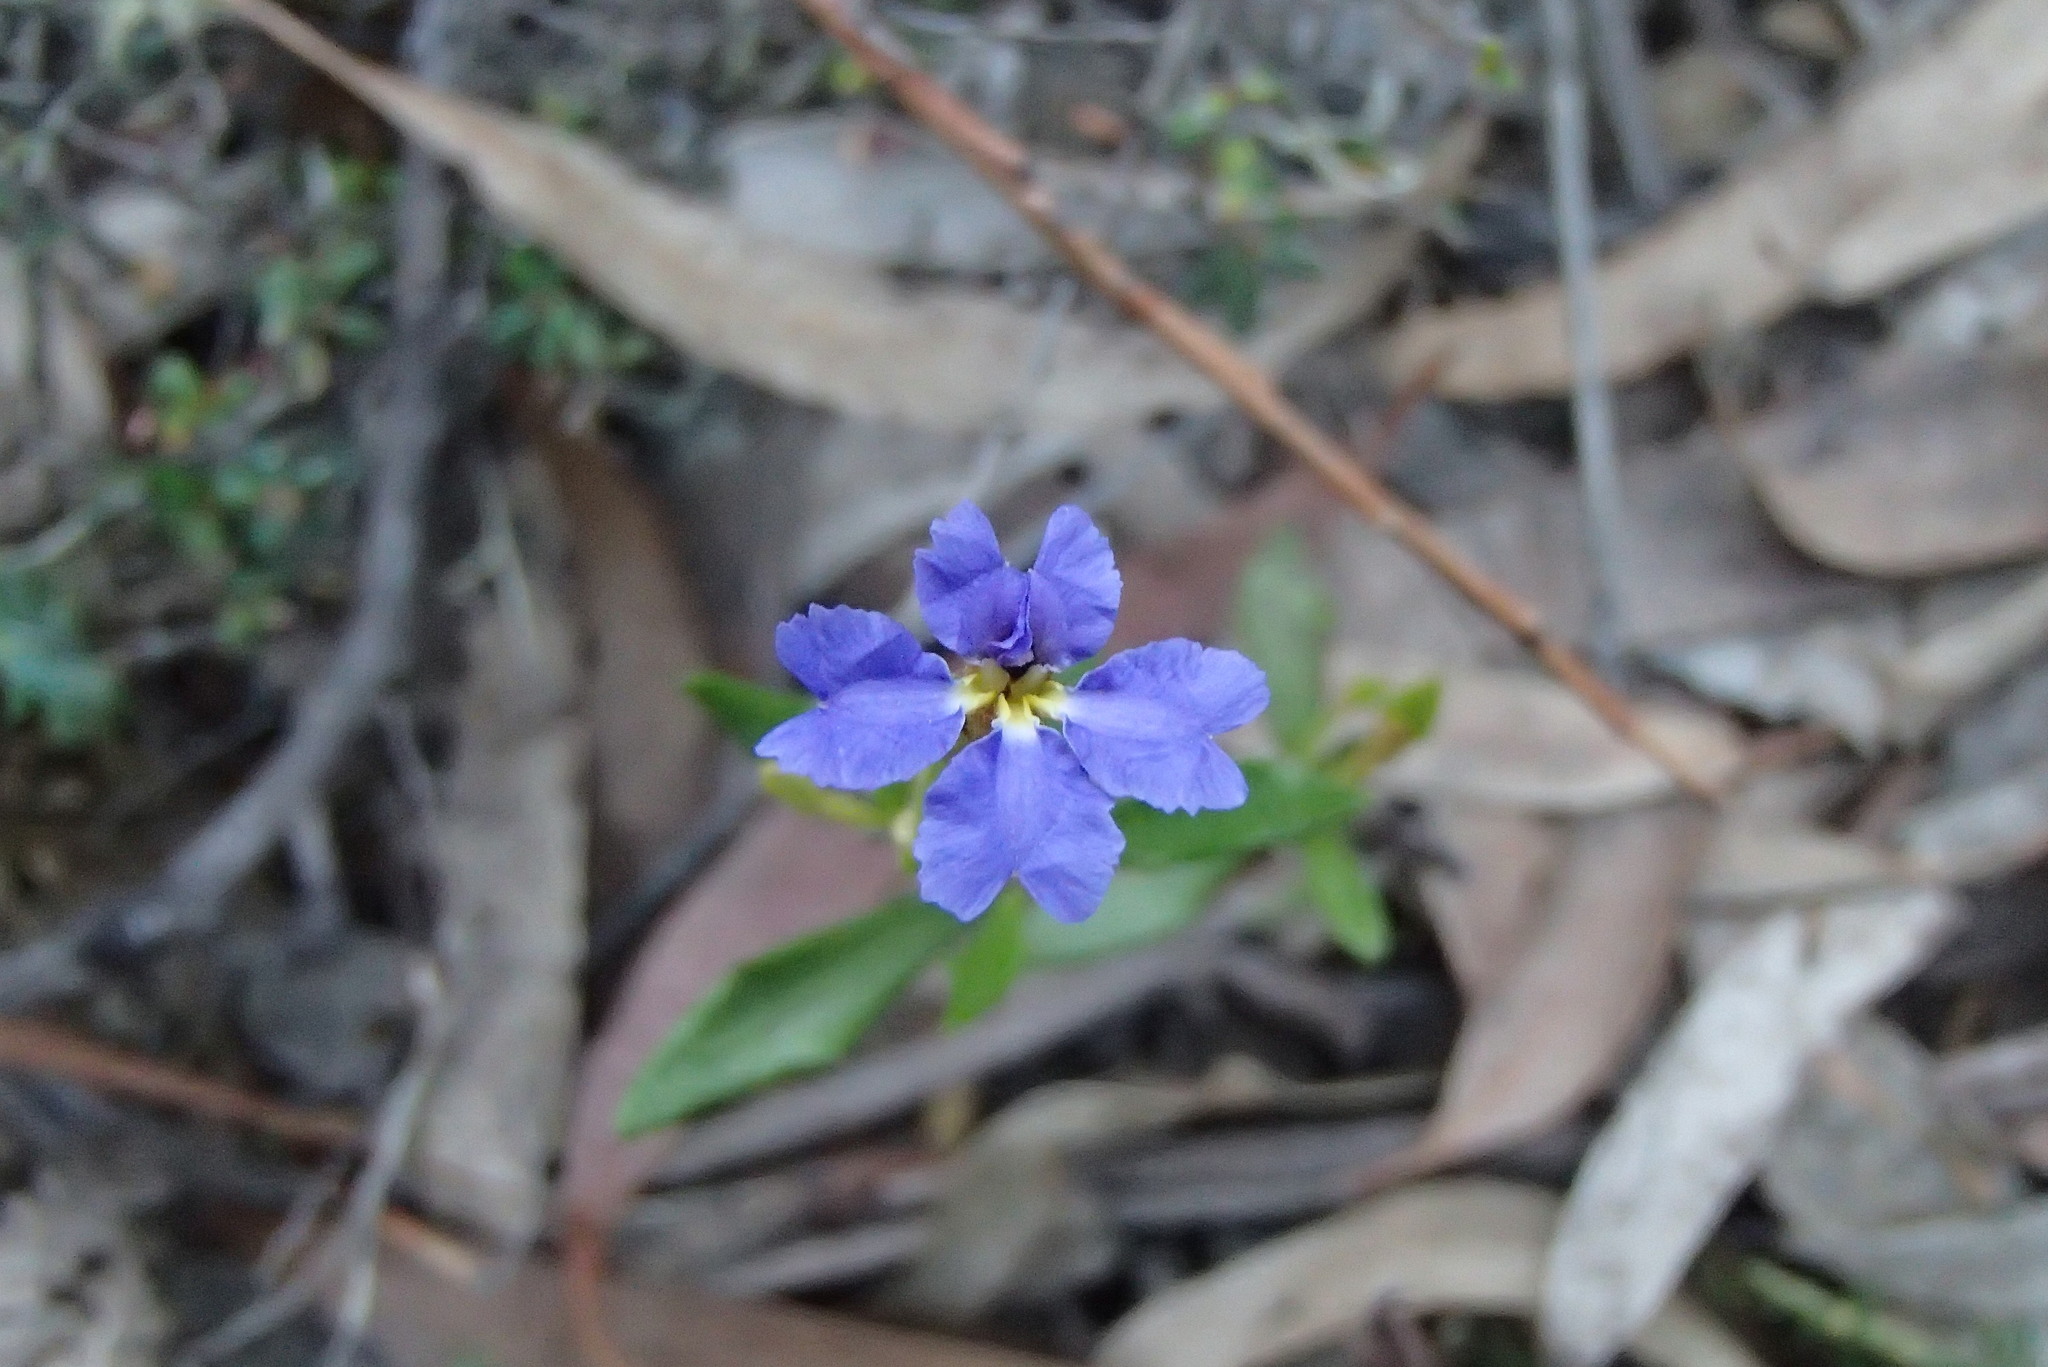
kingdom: Plantae
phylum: Tracheophyta
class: Magnoliopsida
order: Asterales
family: Goodeniaceae
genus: Dampiera
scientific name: Dampiera stricta
